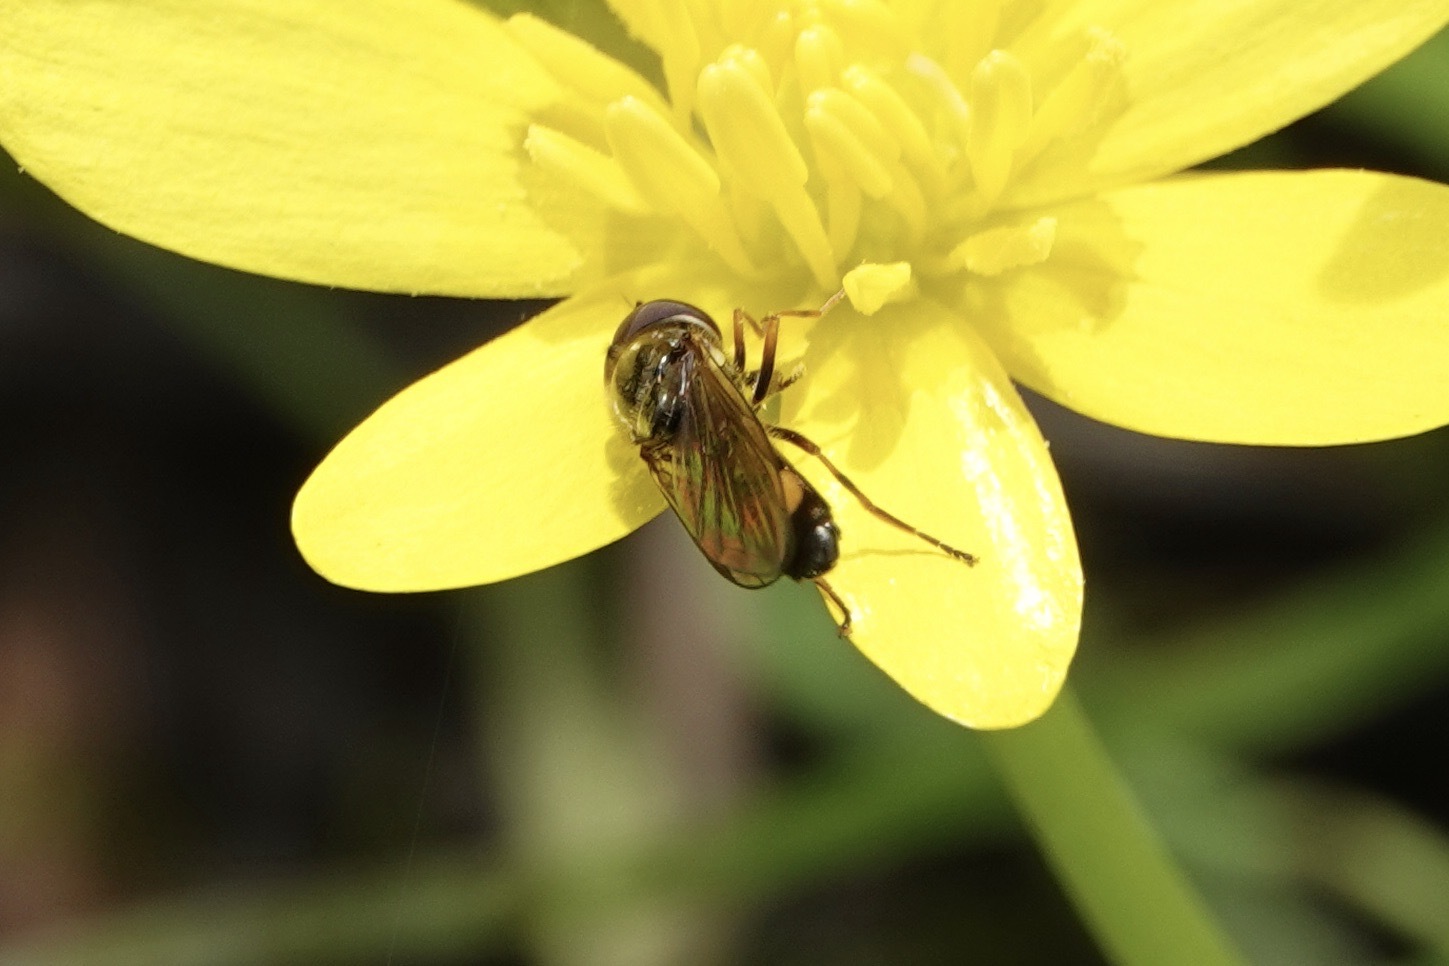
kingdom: Animalia
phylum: Arthropoda
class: Insecta
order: Diptera
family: Syrphidae
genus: Melanostoma
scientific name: Melanostoma mellina
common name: Hover fly
